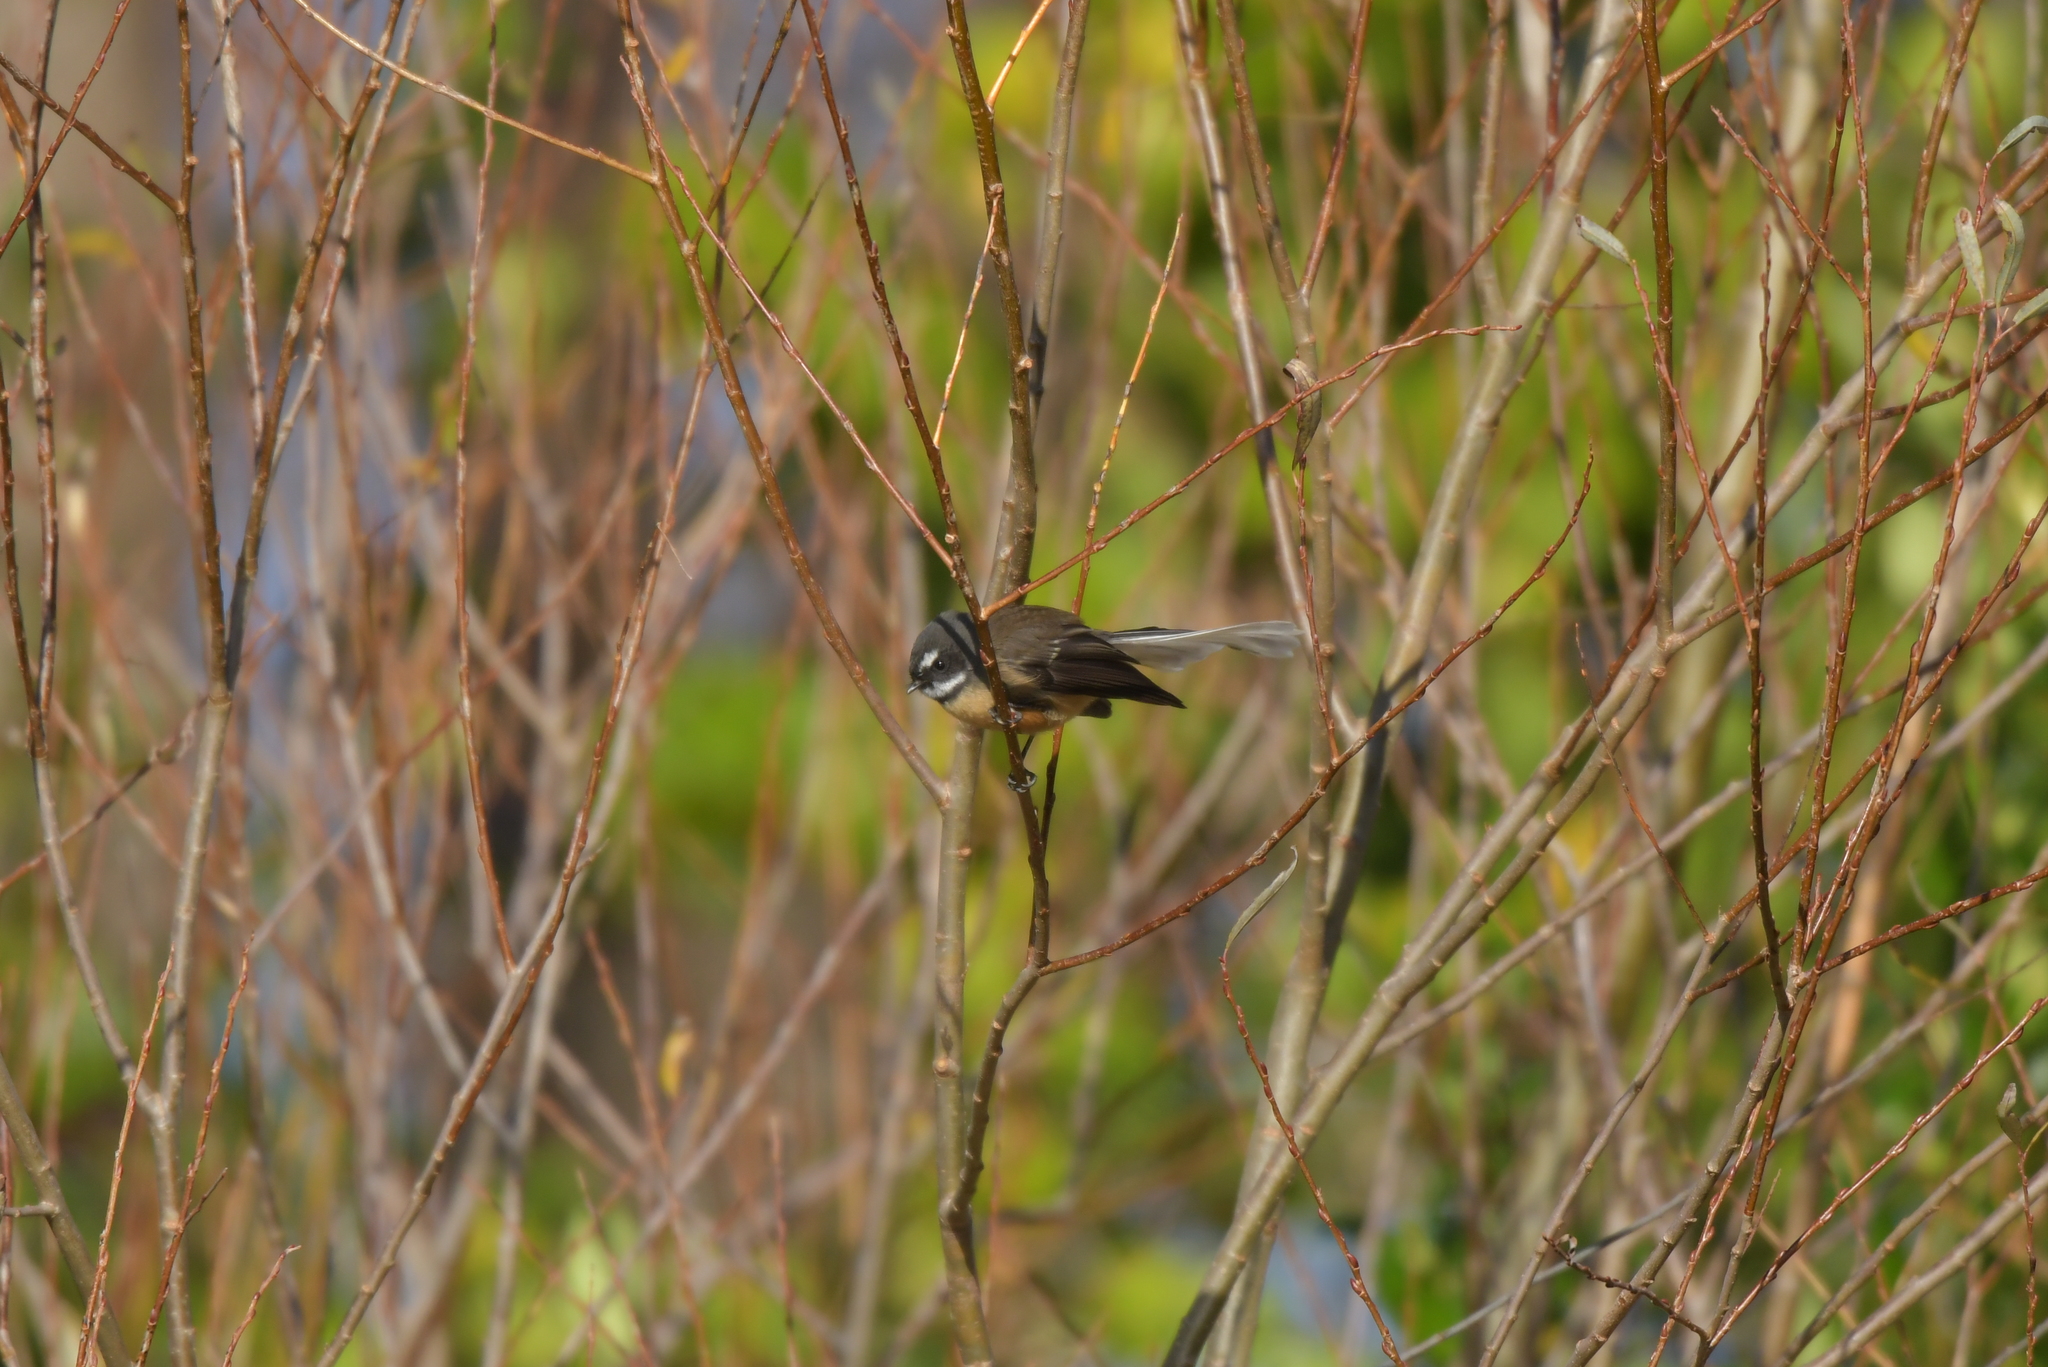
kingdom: Animalia
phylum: Chordata
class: Aves
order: Passeriformes
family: Rhipiduridae
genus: Rhipidura
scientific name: Rhipidura fuliginosa
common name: New zealand fantail
